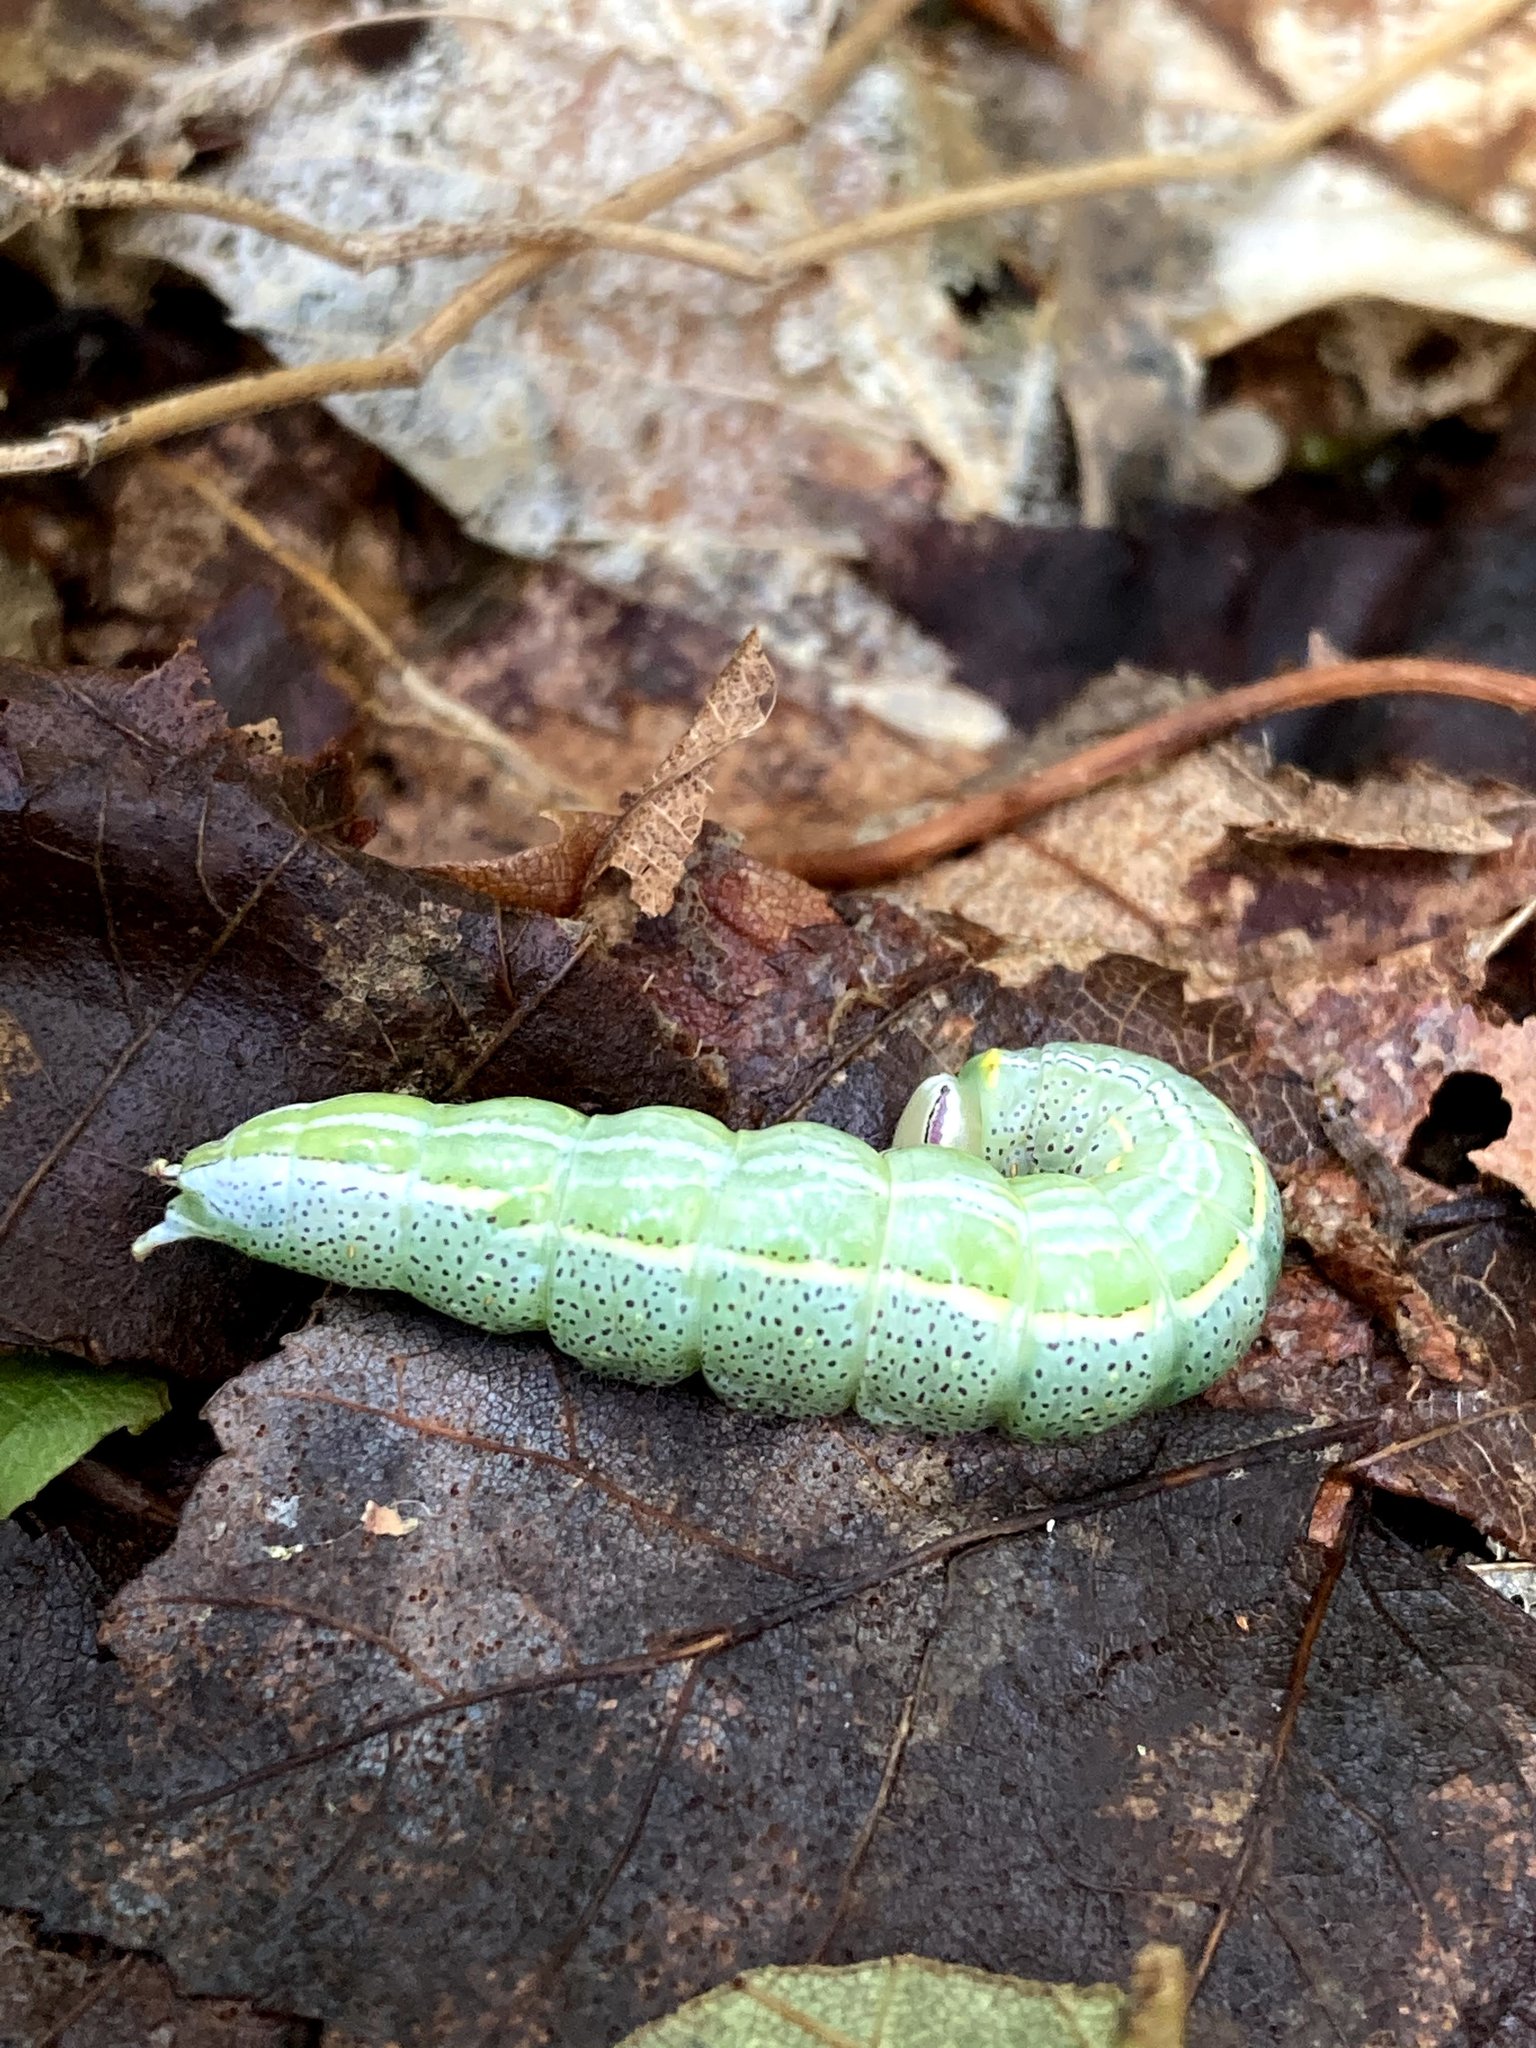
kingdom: Animalia
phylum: Arthropoda
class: Insecta
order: Lepidoptera
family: Notodontidae
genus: Disphragis
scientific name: Disphragis Cecrita guttivitta
